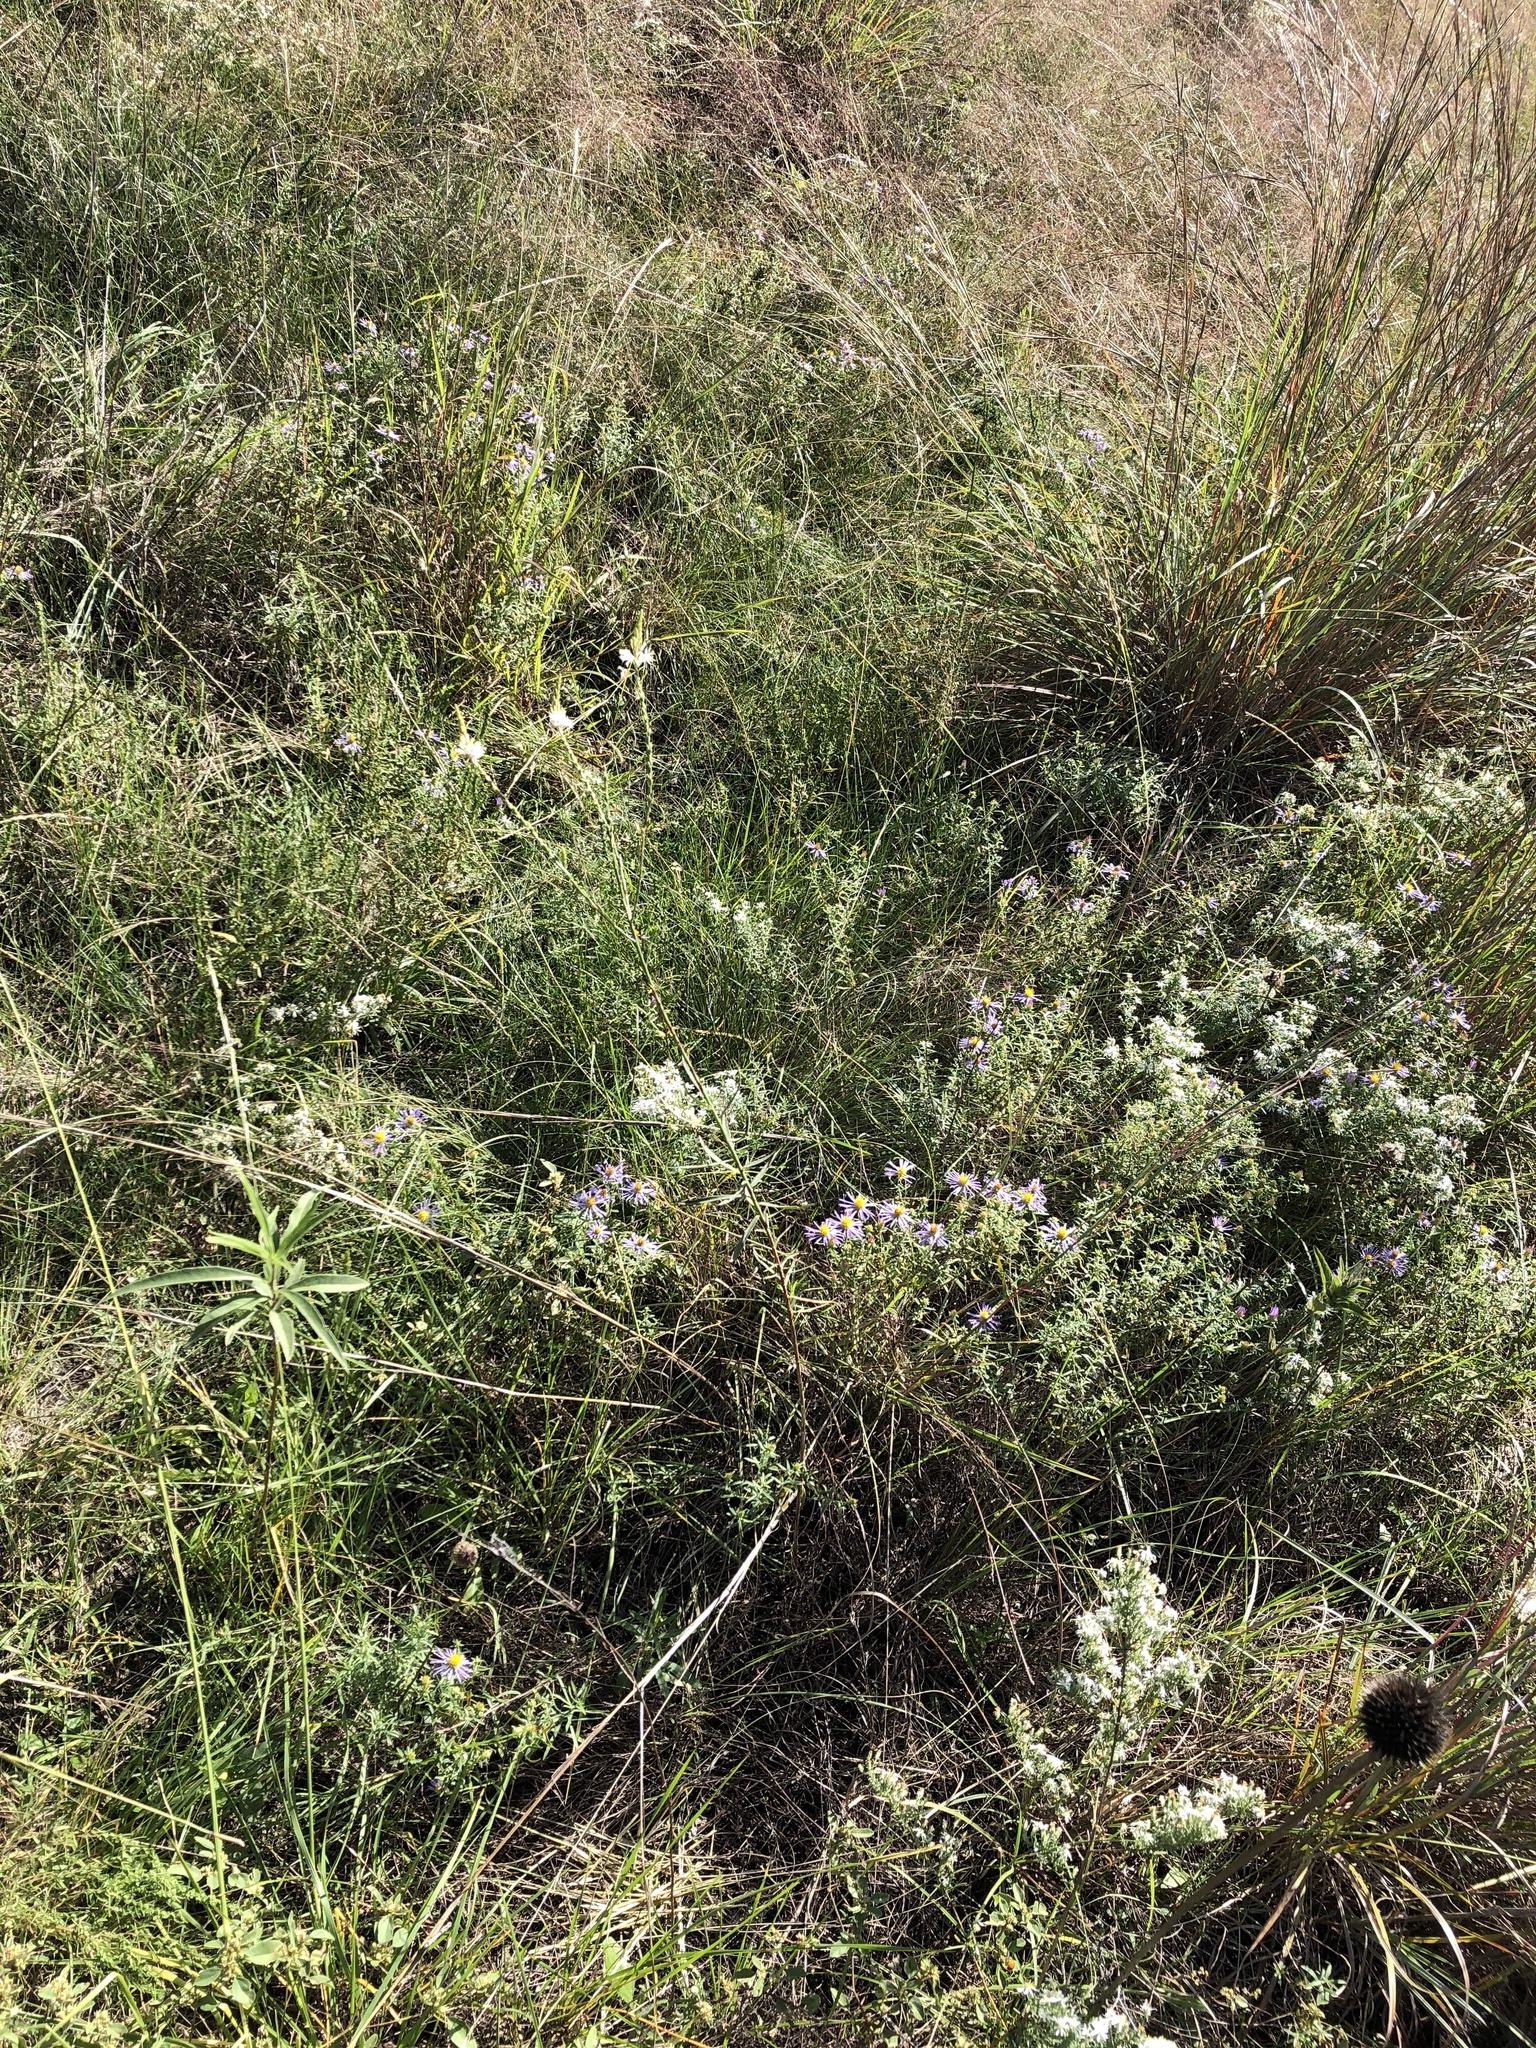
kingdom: Plantae
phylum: Tracheophyta
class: Magnoliopsida
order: Myrtales
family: Onagraceae
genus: Oenothera
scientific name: Oenothera glaucifolia
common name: False gaura
